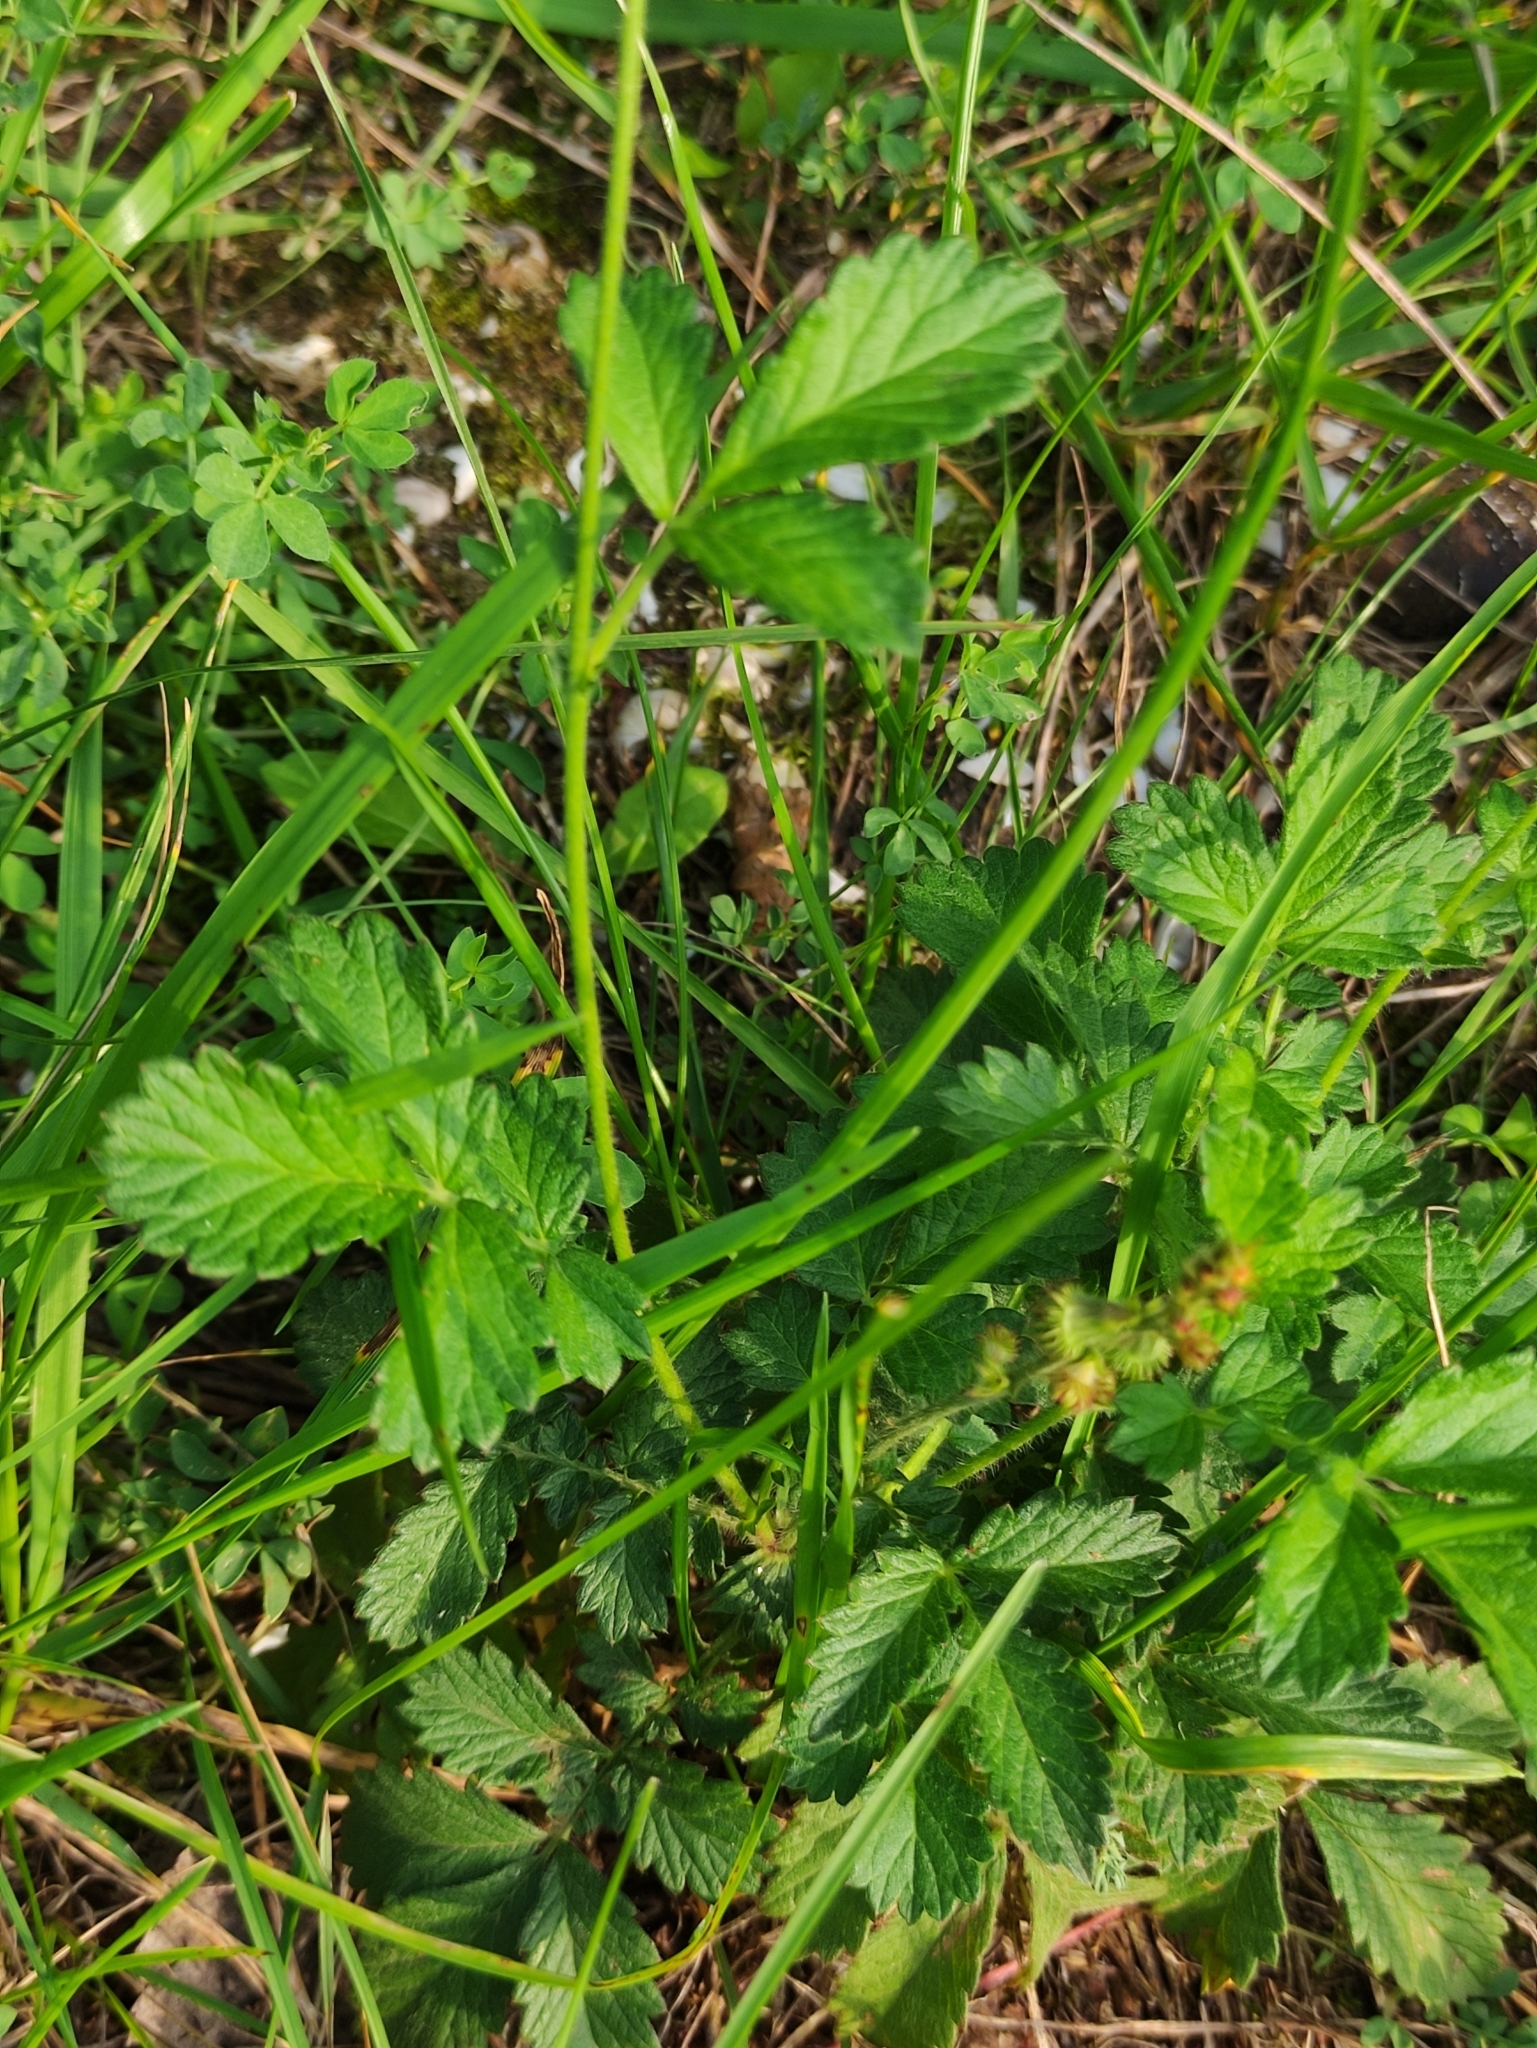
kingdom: Plantae
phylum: Tracheophyta
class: Magnoliopsida
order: Rosales
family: Rosaceae
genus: Agrimonia
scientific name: Agrimonia eupatoria
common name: Agrimony
